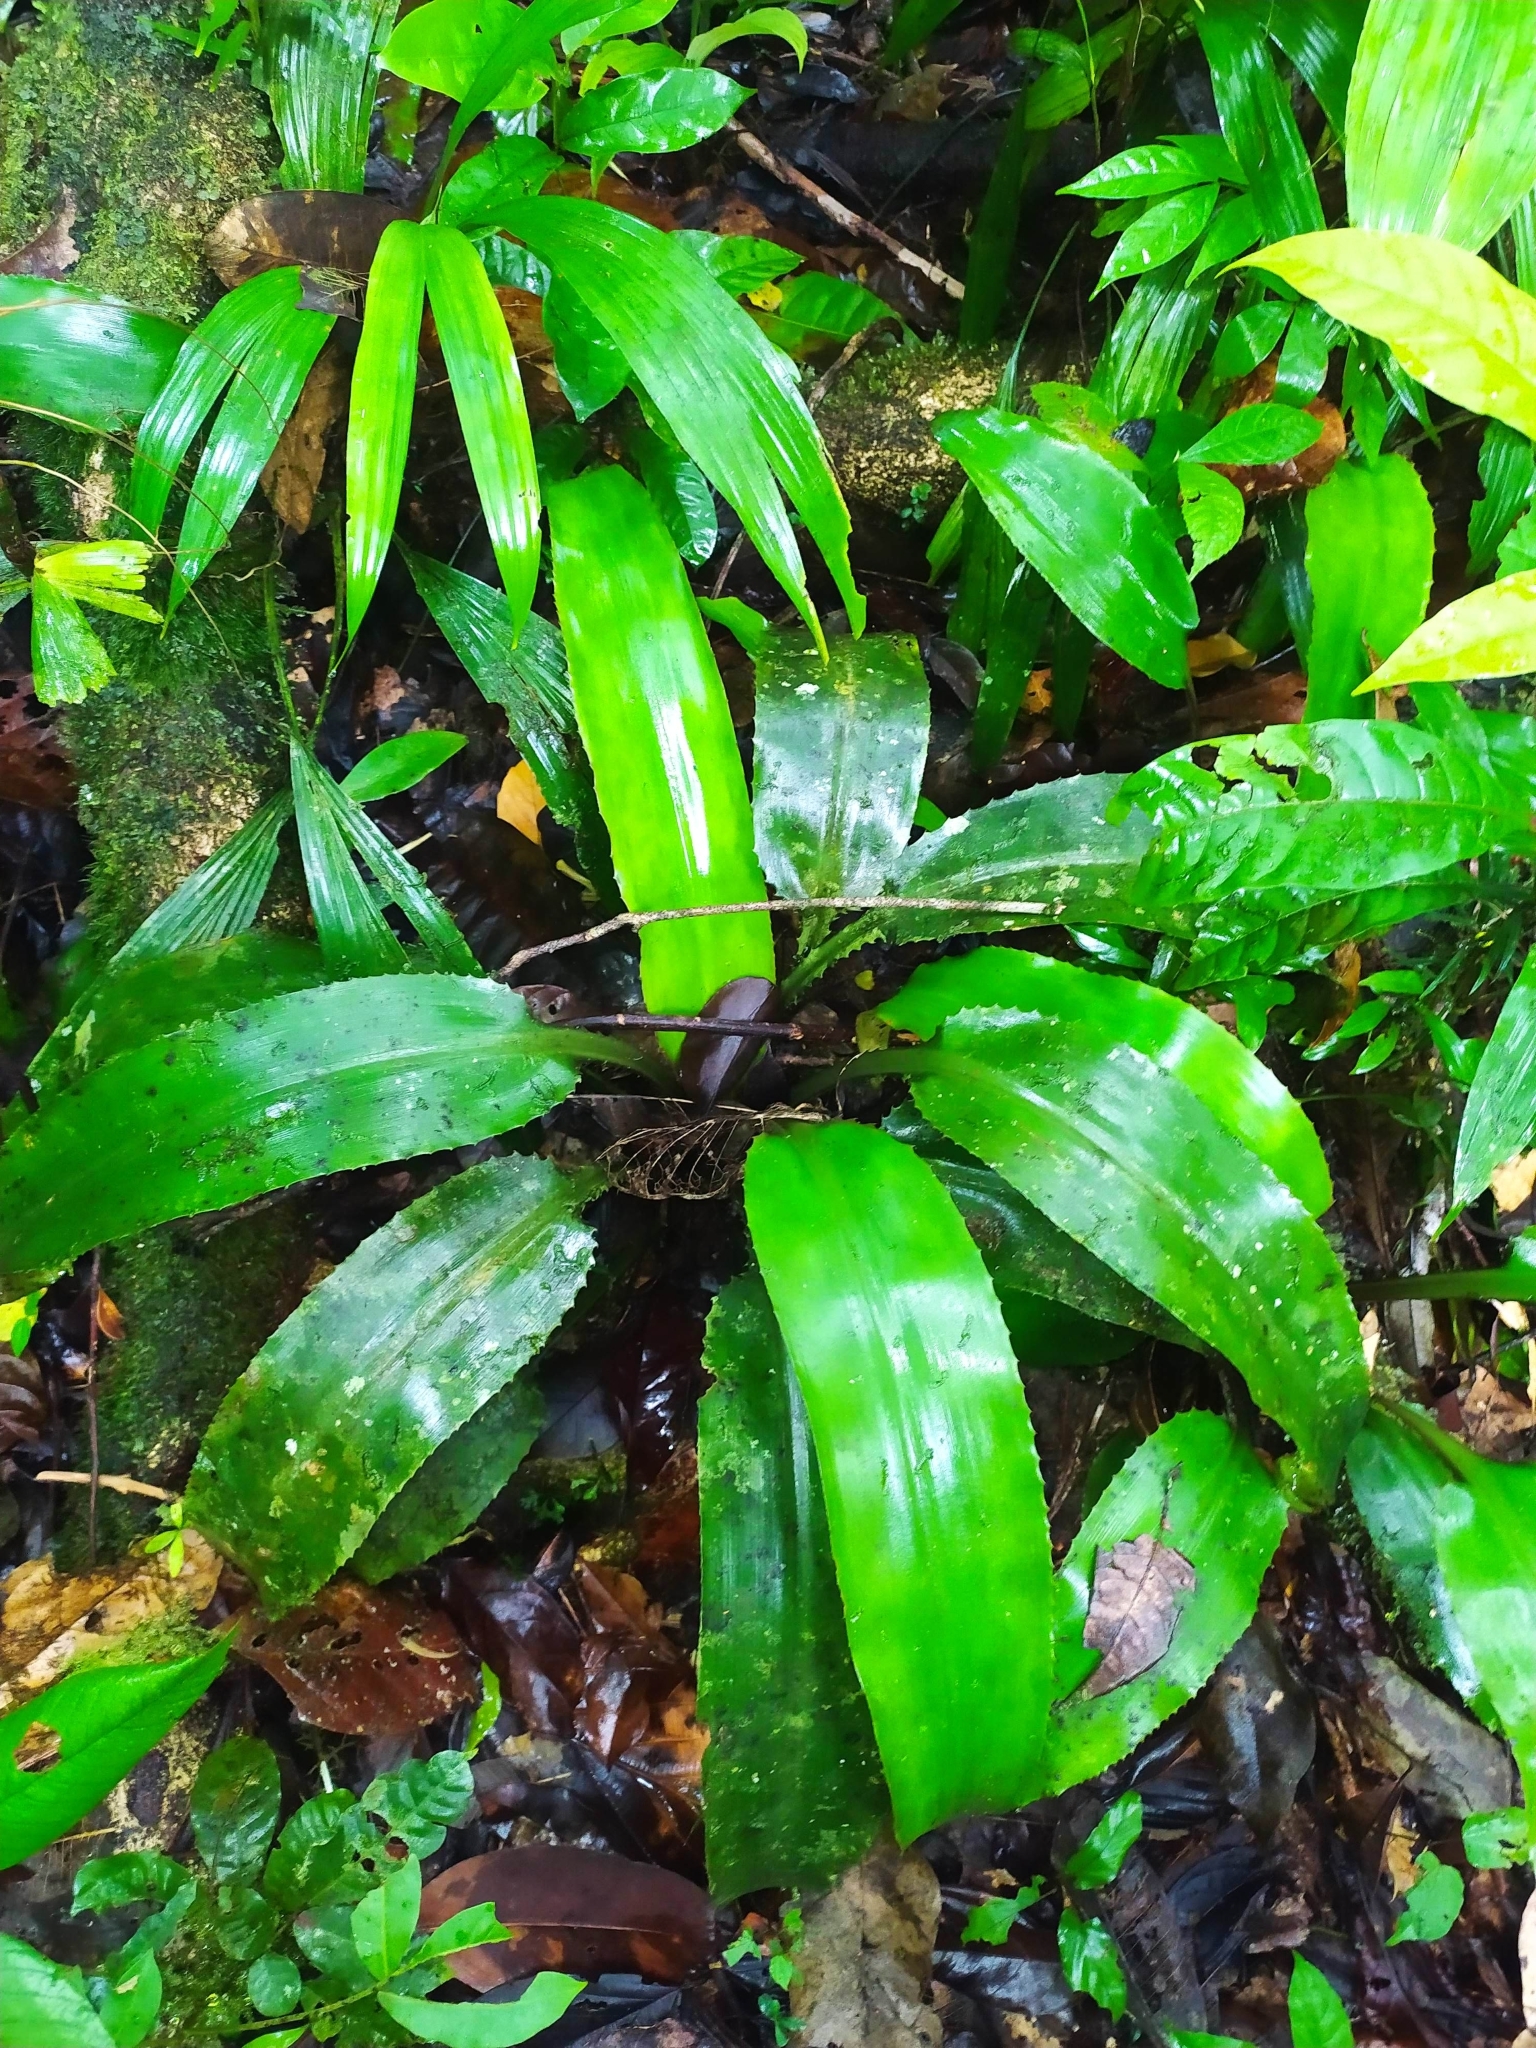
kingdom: Plantae
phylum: Tracheophyta
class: Liliopsida
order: Poales
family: Bromeliaceae
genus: Disteganthus
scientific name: Disteganthus basilateralis
